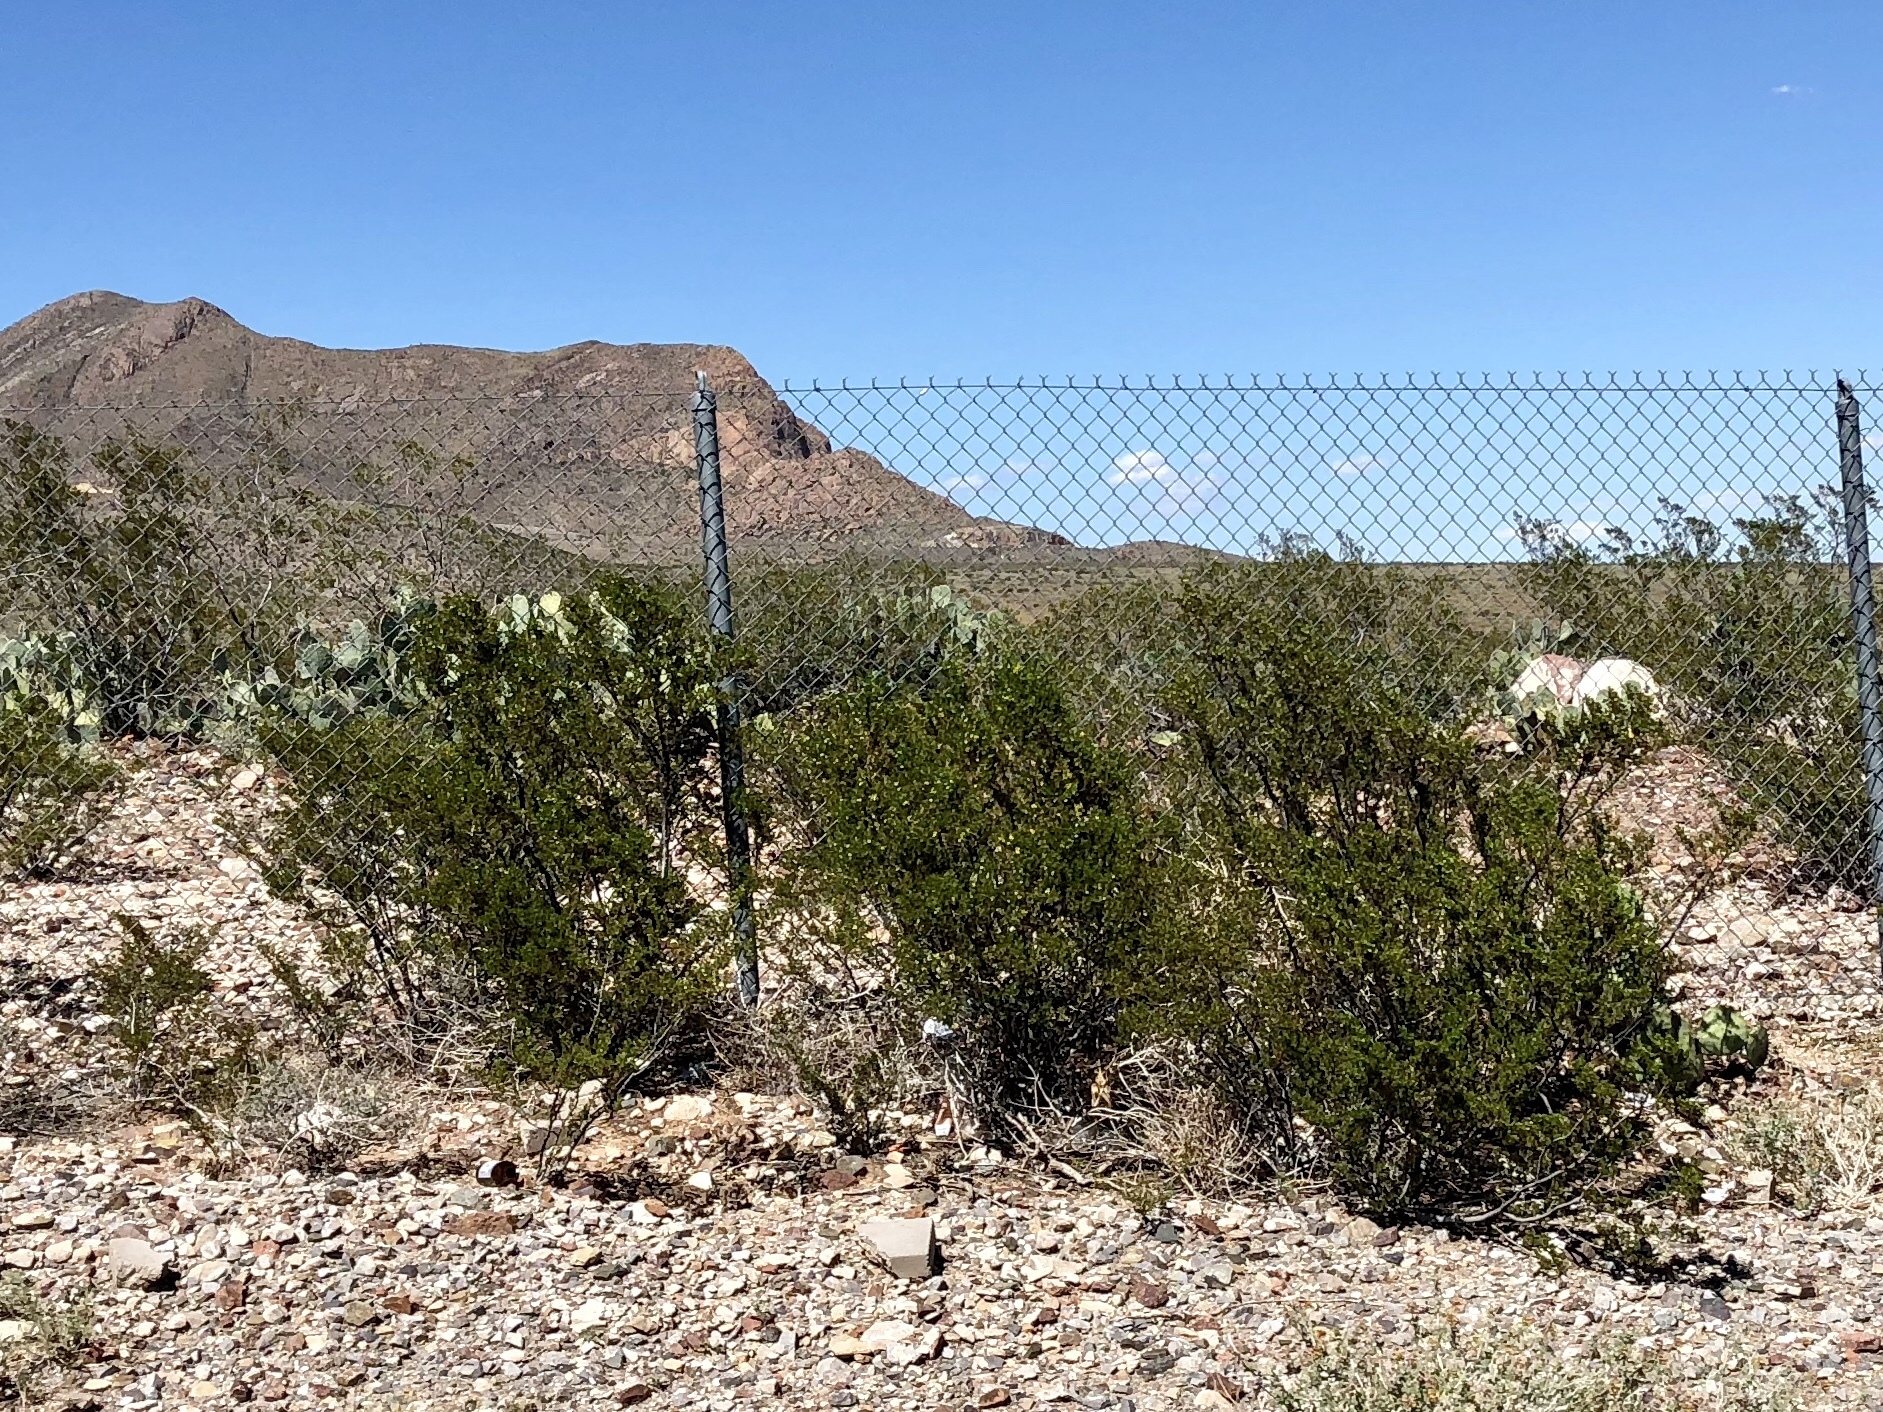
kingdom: Plantae
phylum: Tracheophyta
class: Magnoliopsida
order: Zygophyllales
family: Zygophyllaceae
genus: Larrea
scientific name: Larrea tridentata
